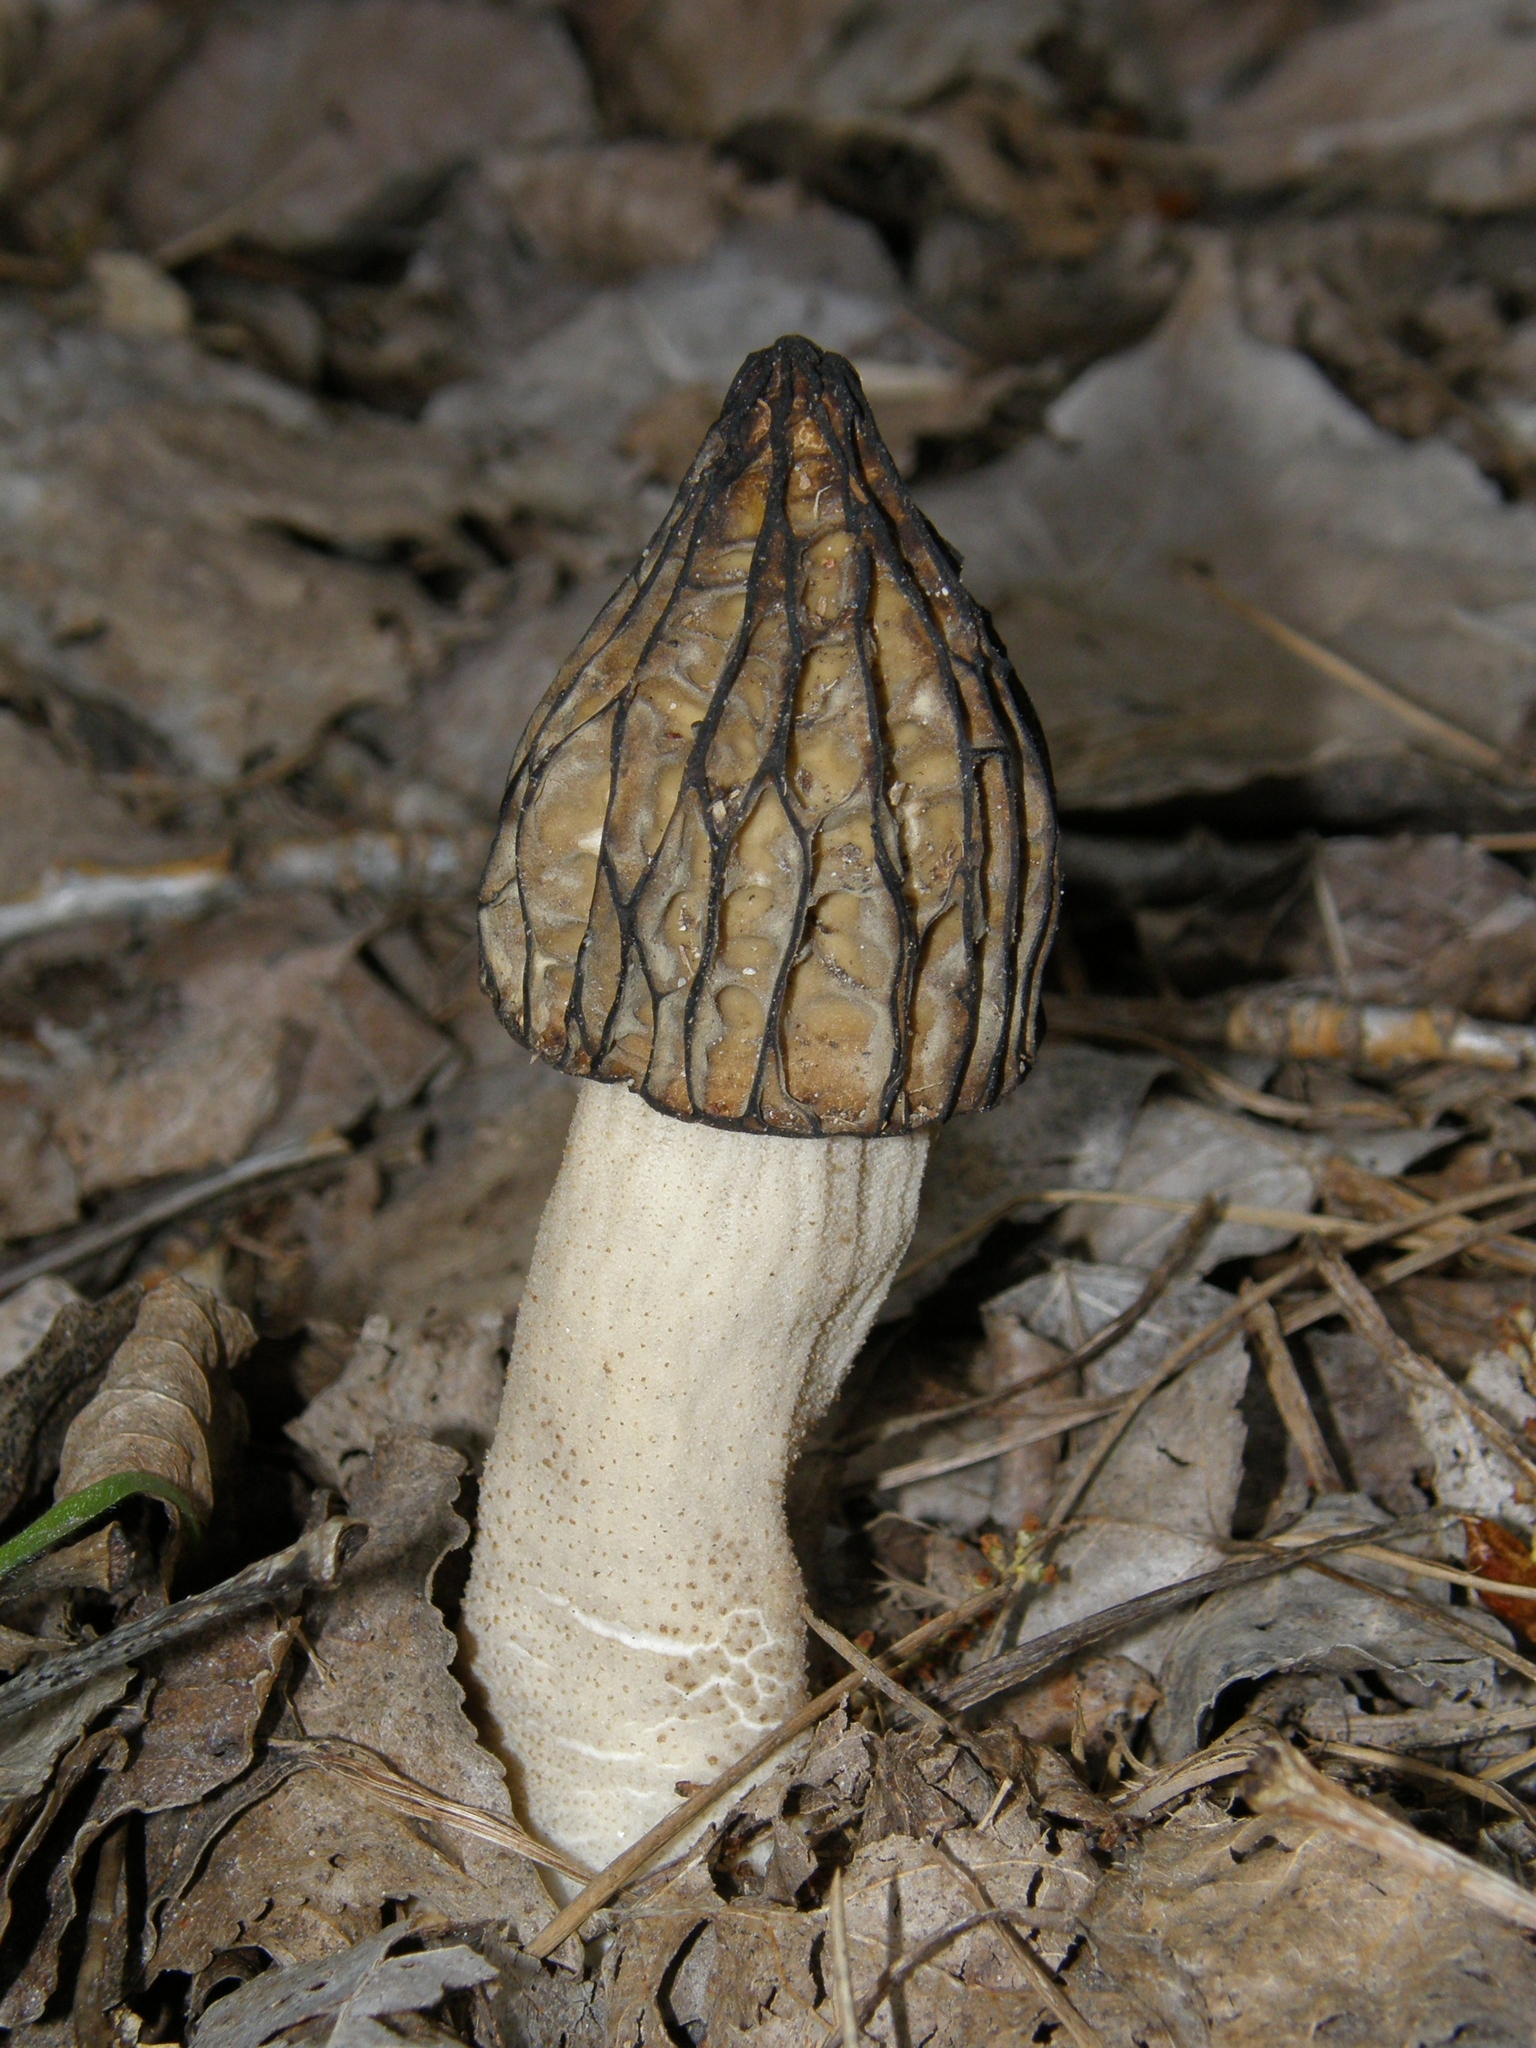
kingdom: Fungi
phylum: Ascomycota
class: Pezizomycetes
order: Pezizales
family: Morchellaceae
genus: Morchella
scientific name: Morchella semilibera
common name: Semifree morel
